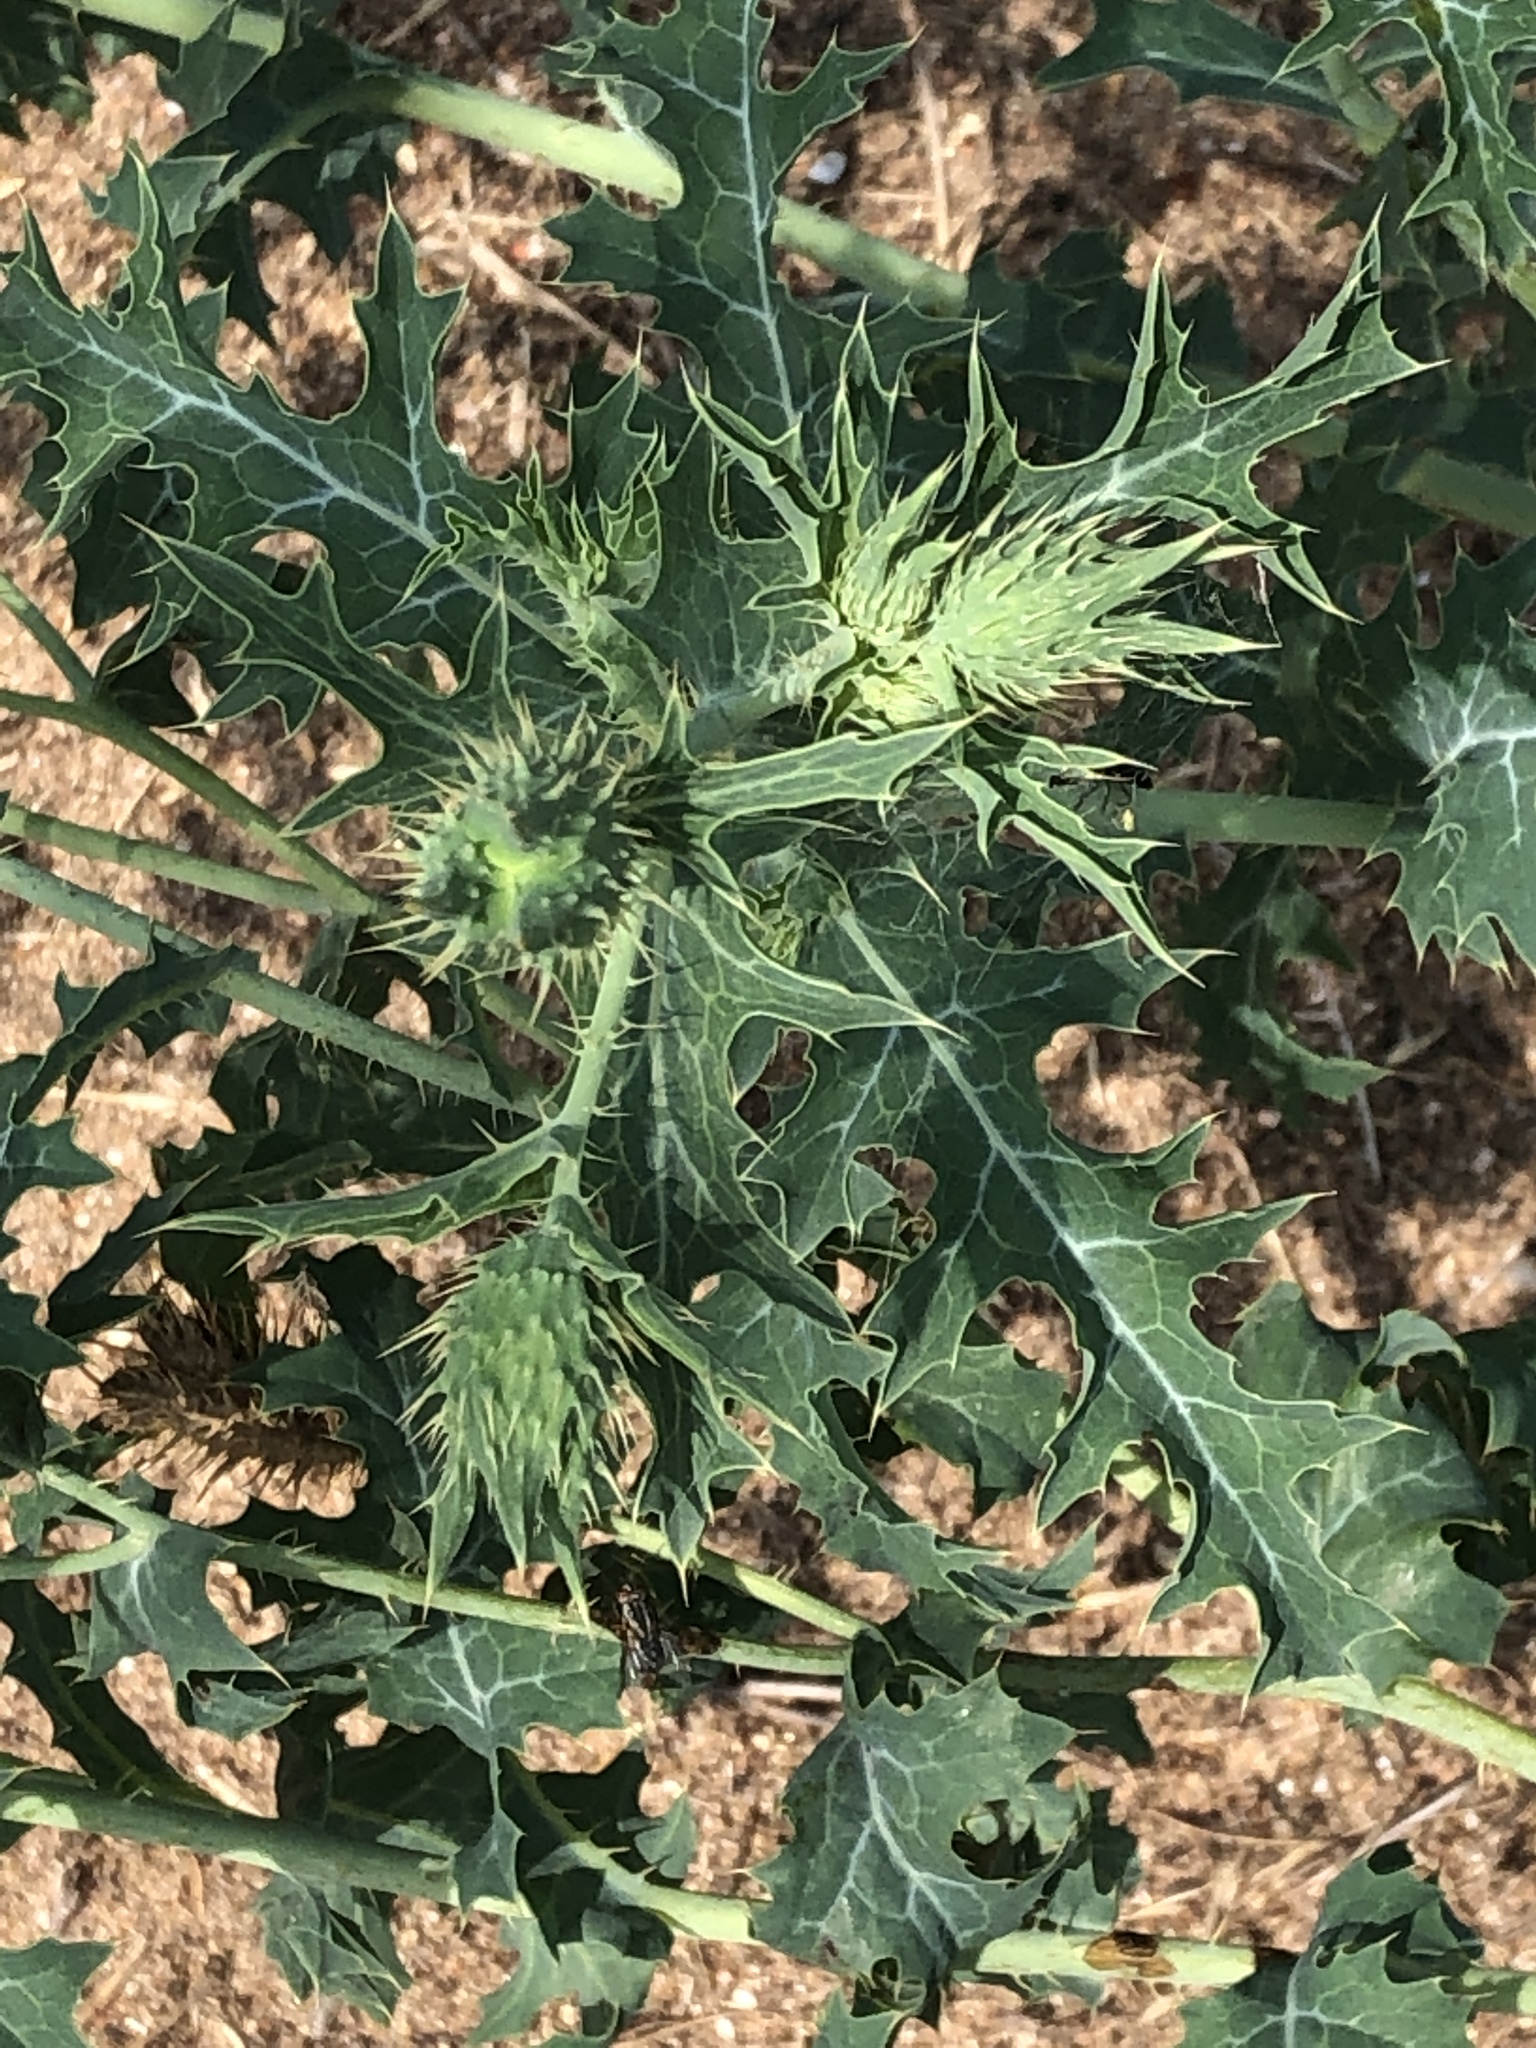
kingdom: Plantae
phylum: Tracheophyta
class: Magnoliopsida
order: Ranunculales
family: Papaveraceae
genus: Argemone
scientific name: Argemone albiflora
